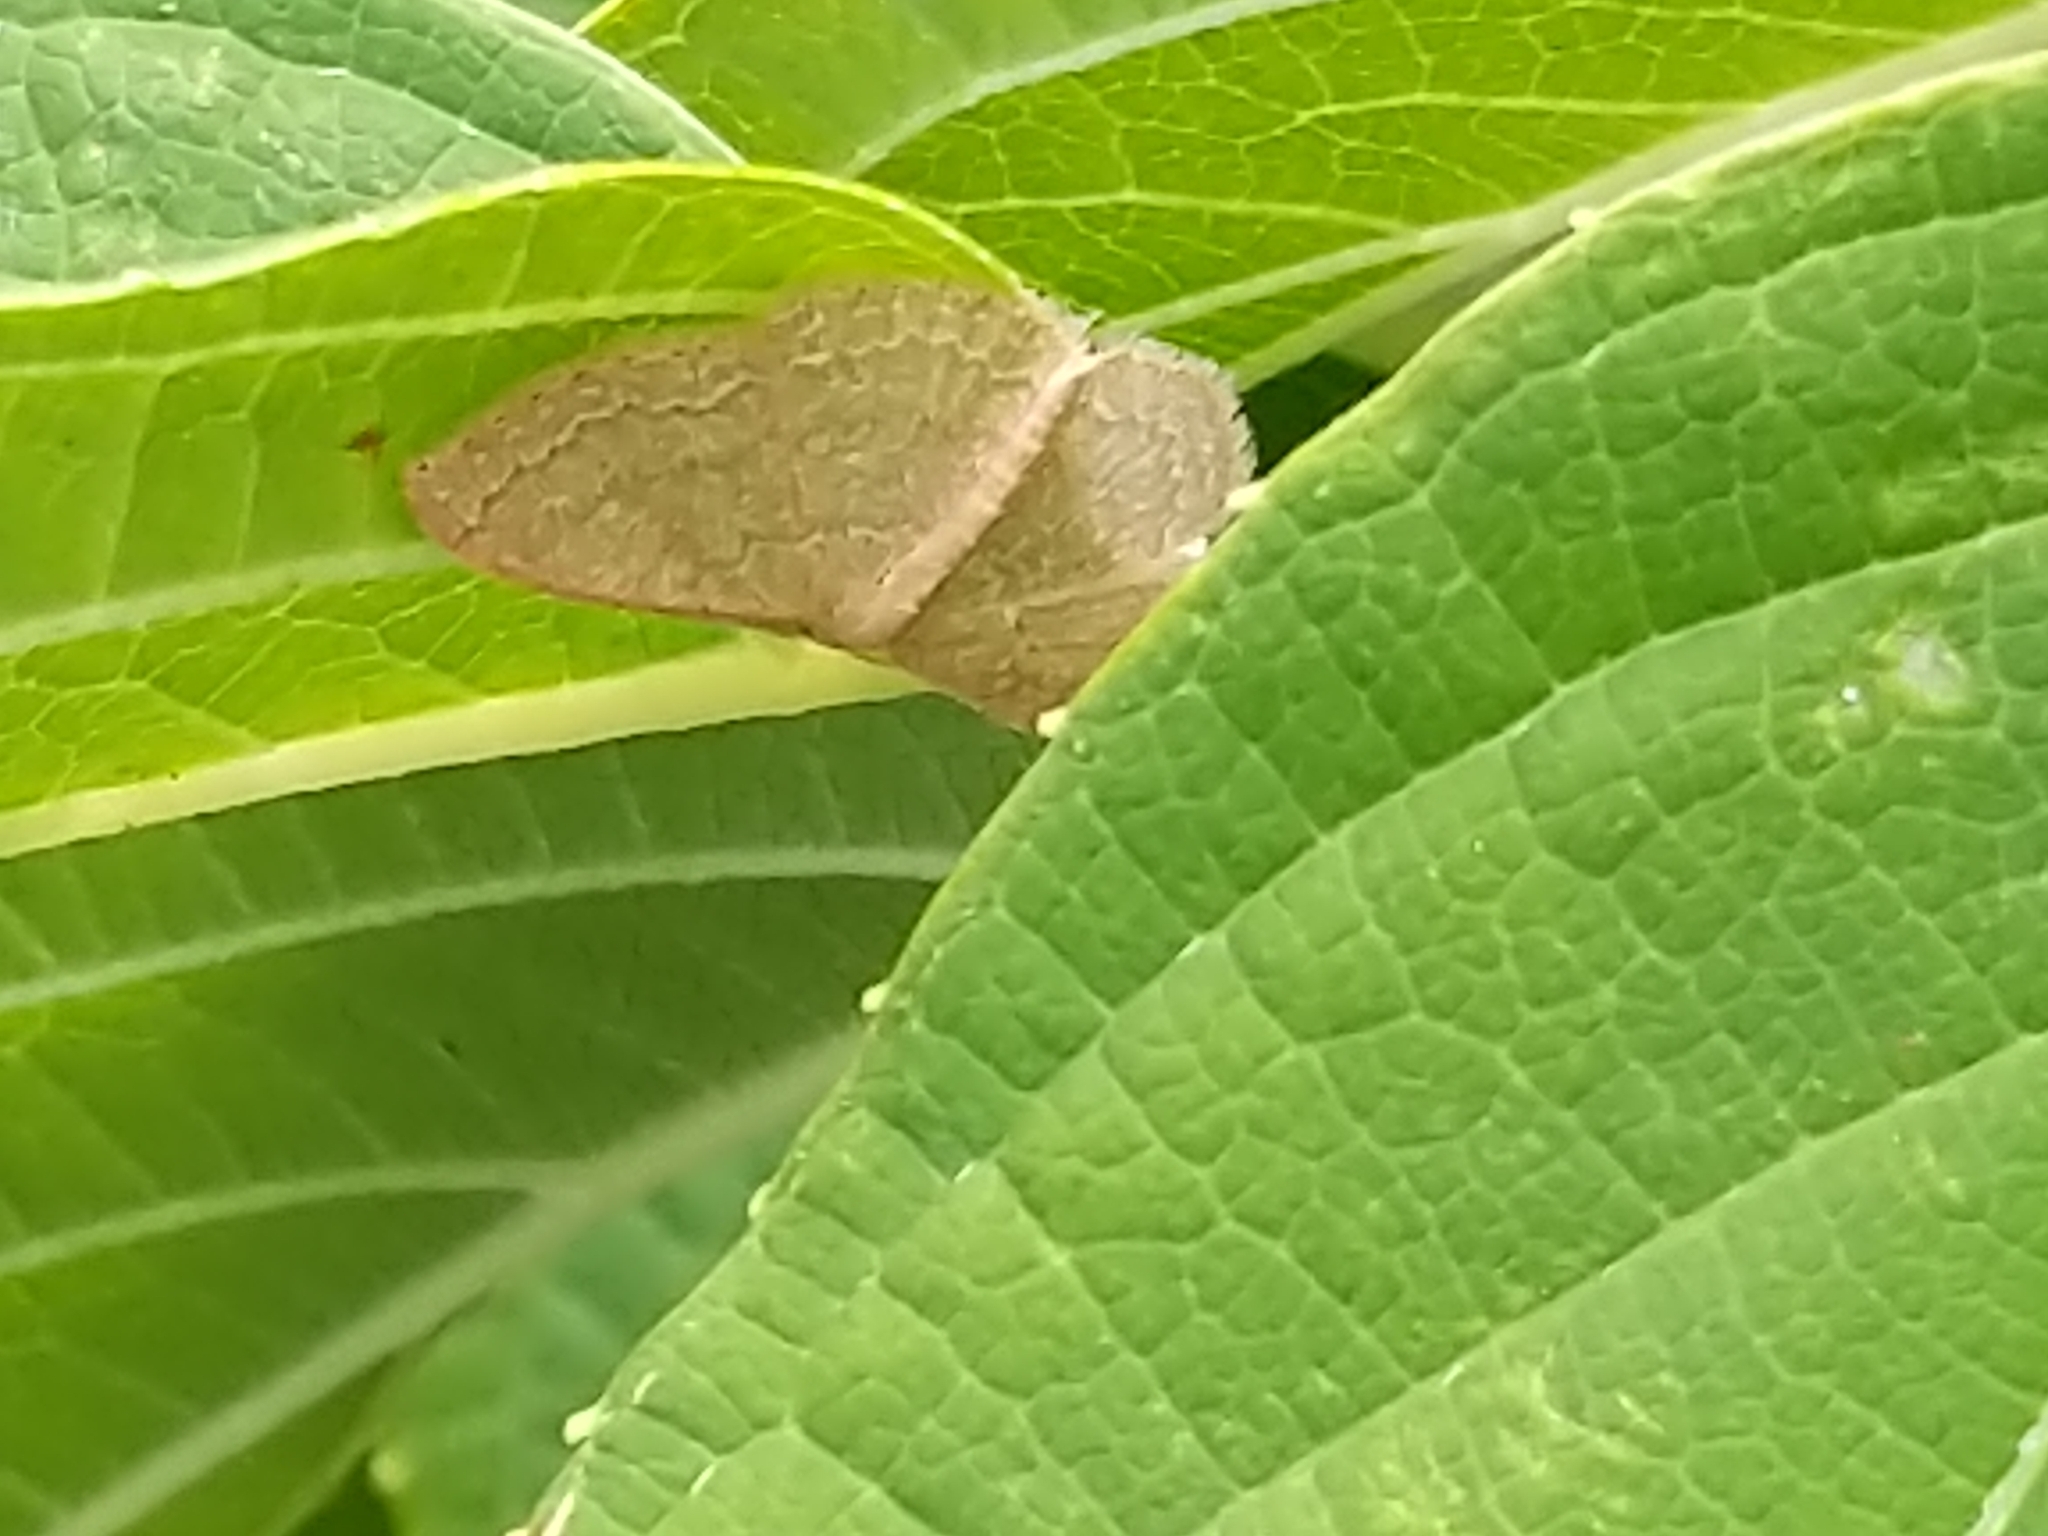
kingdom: Animalia
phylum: Arthropoda
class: Insecta
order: Lepidoptera
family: Geometridae
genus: Pleuroprucha
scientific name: Pleuroprucha insulsaria
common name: Common tan wave
